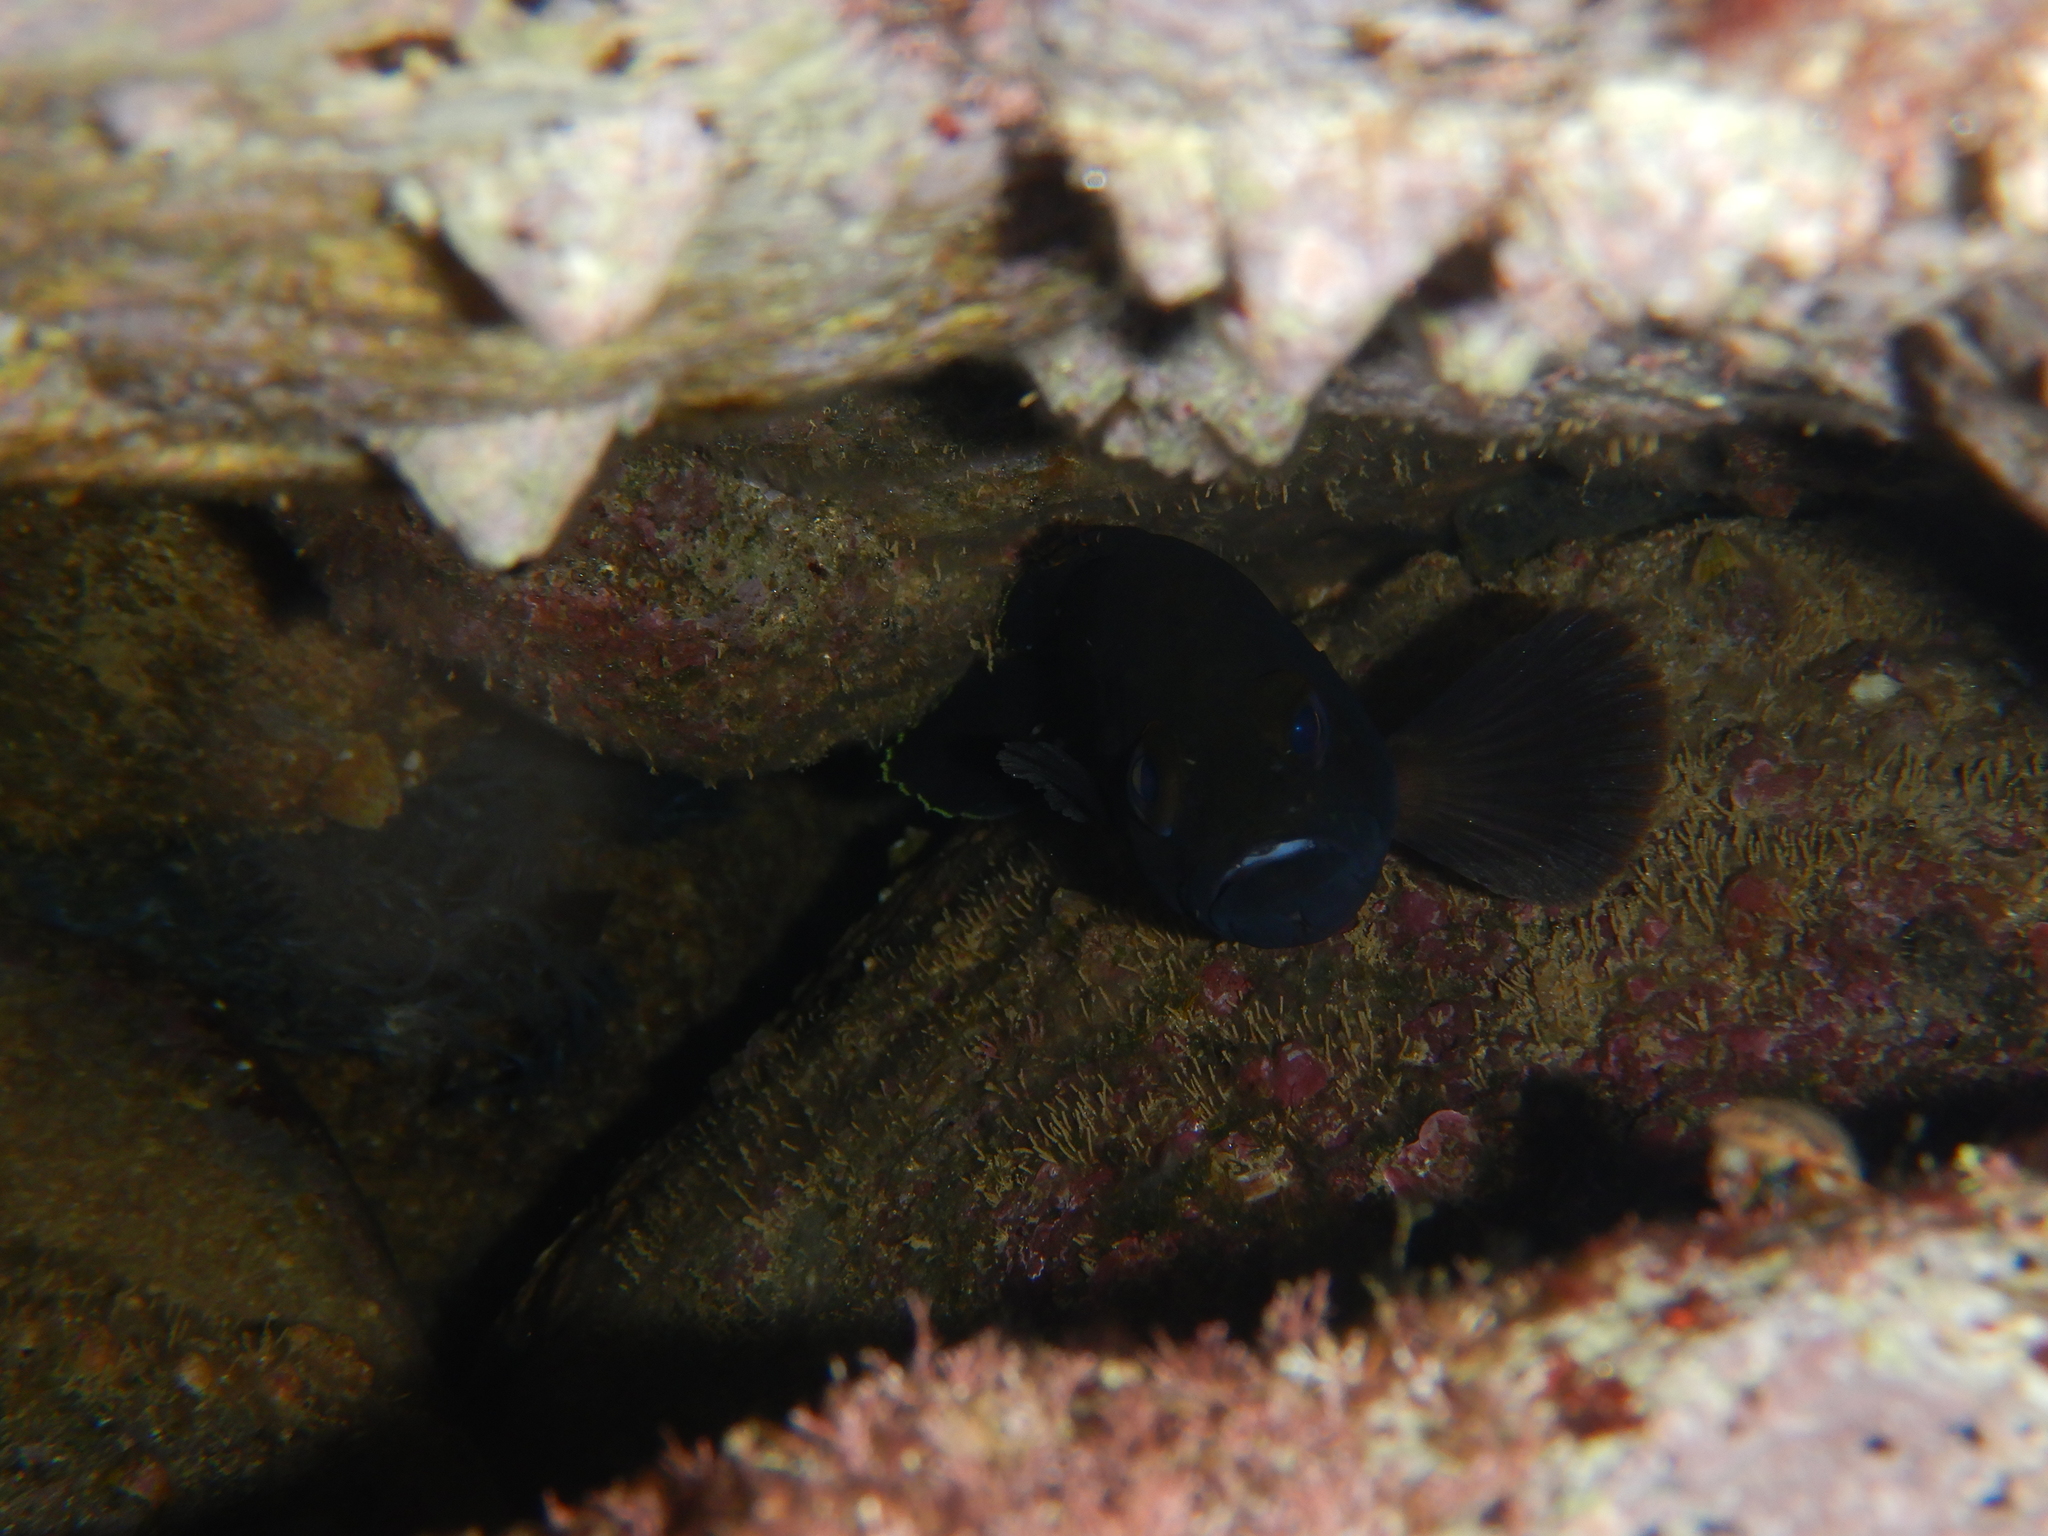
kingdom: Animalia
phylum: Chordata
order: Perciformes
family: Serranidae
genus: Epinephelus
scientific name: Epinephelus marginatus
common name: Dusky grouper
